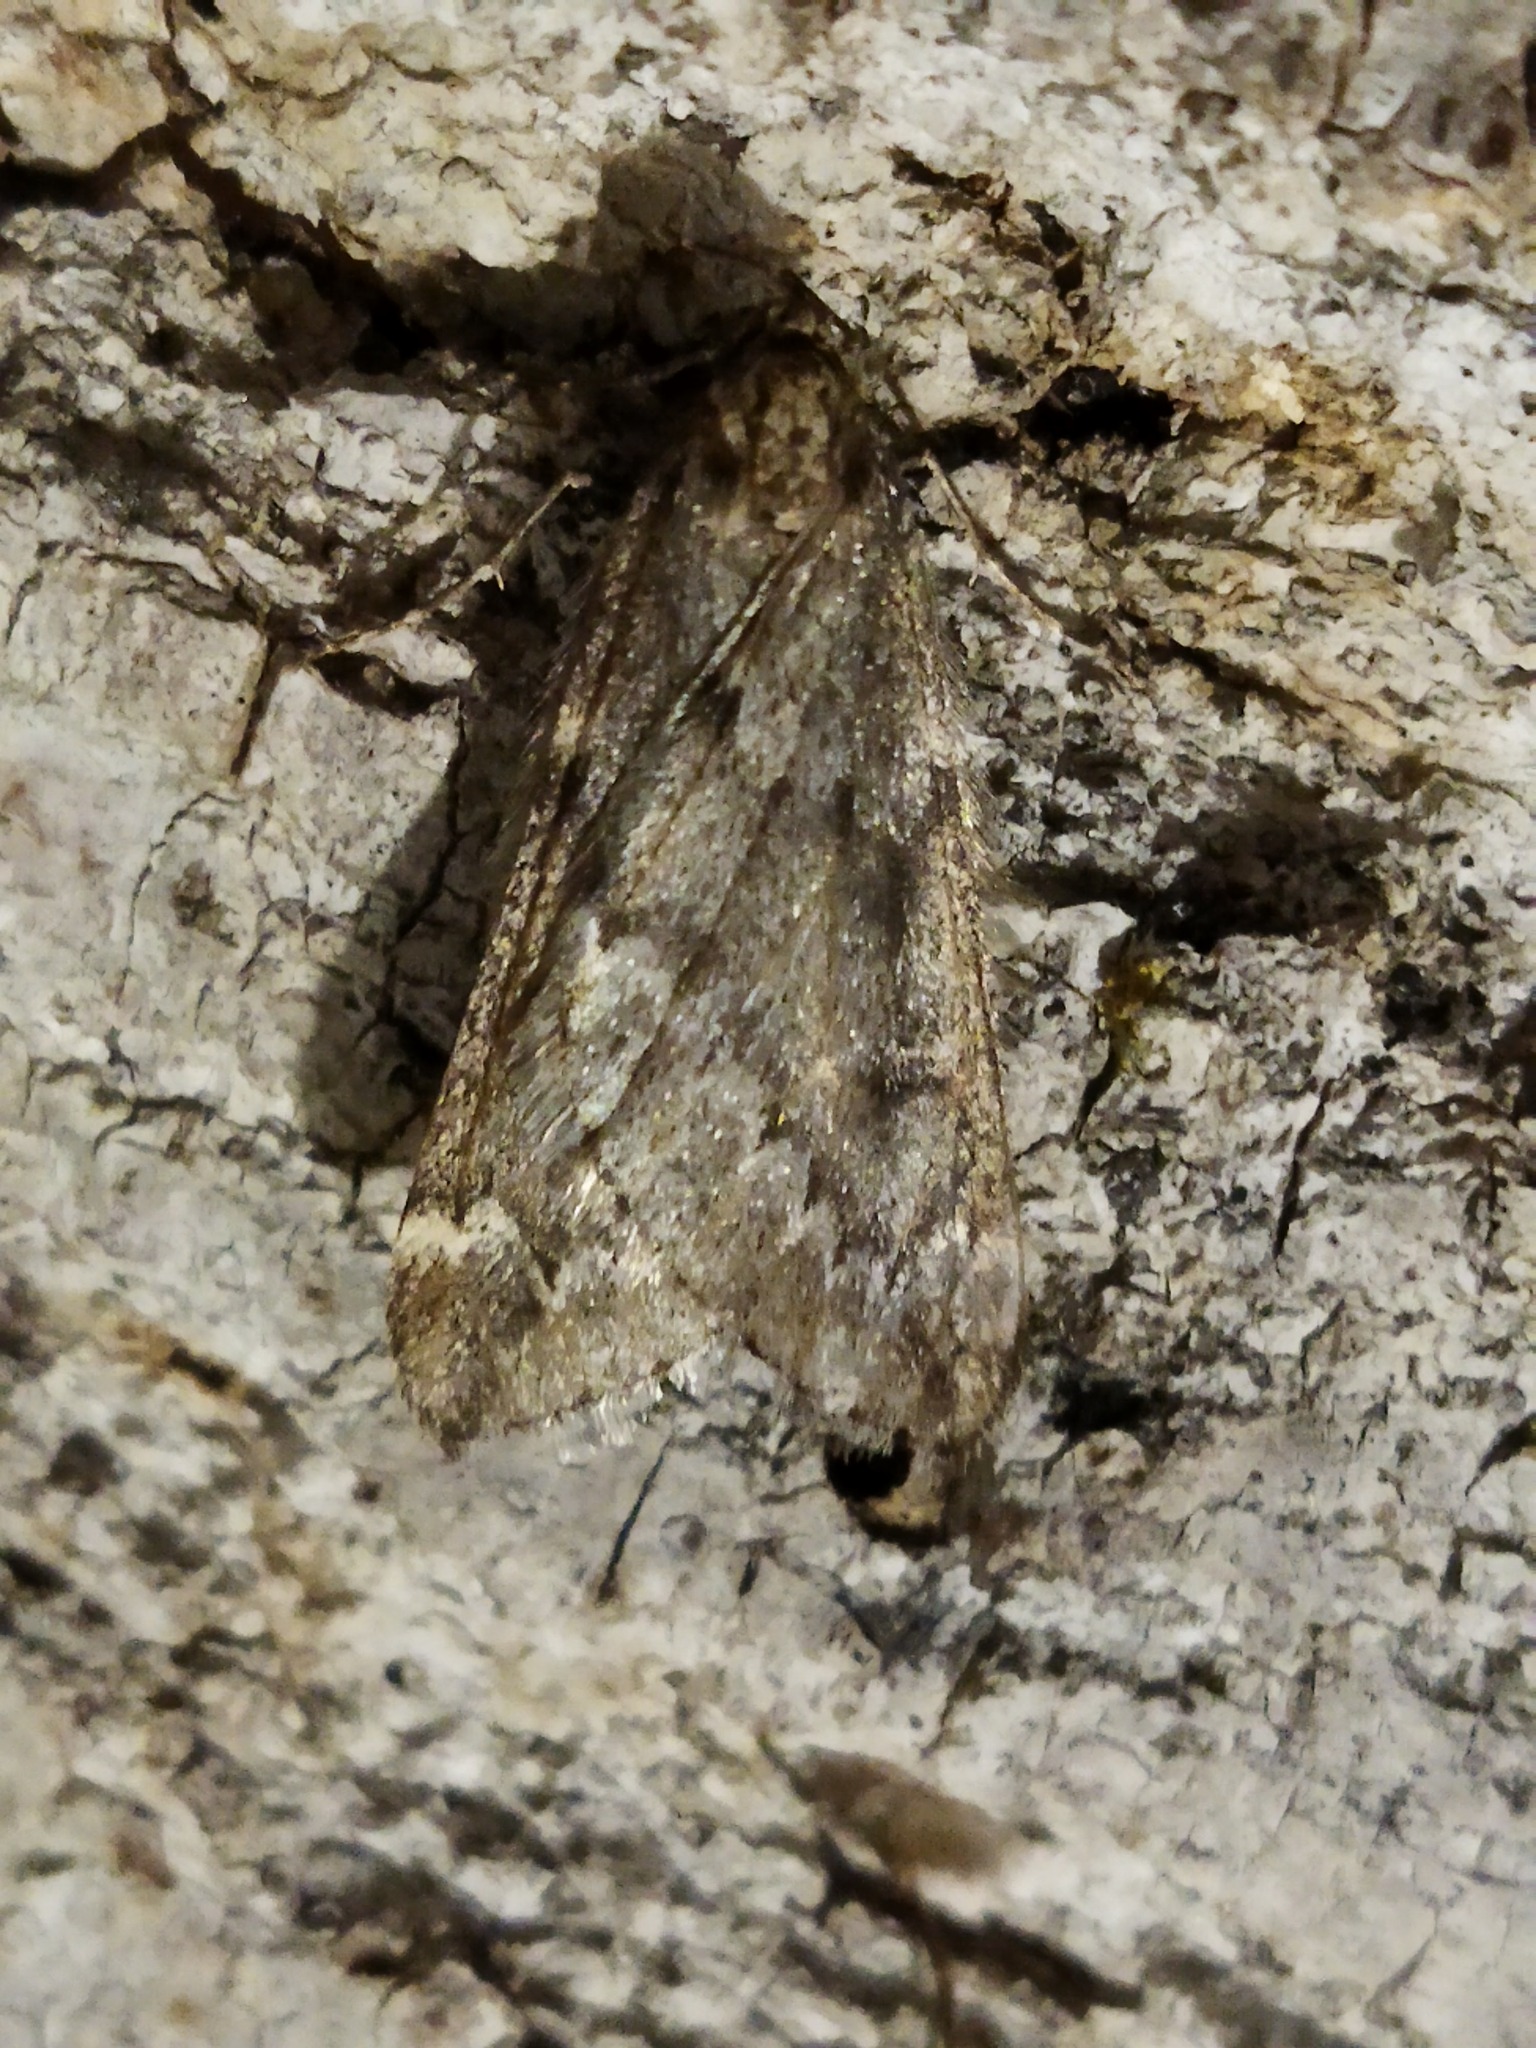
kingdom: Animalia
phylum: Arthropoda
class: Insecta
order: Lepidoptera
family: Geometridae
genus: Alsophila
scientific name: Alsophila aescularia
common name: March moth
